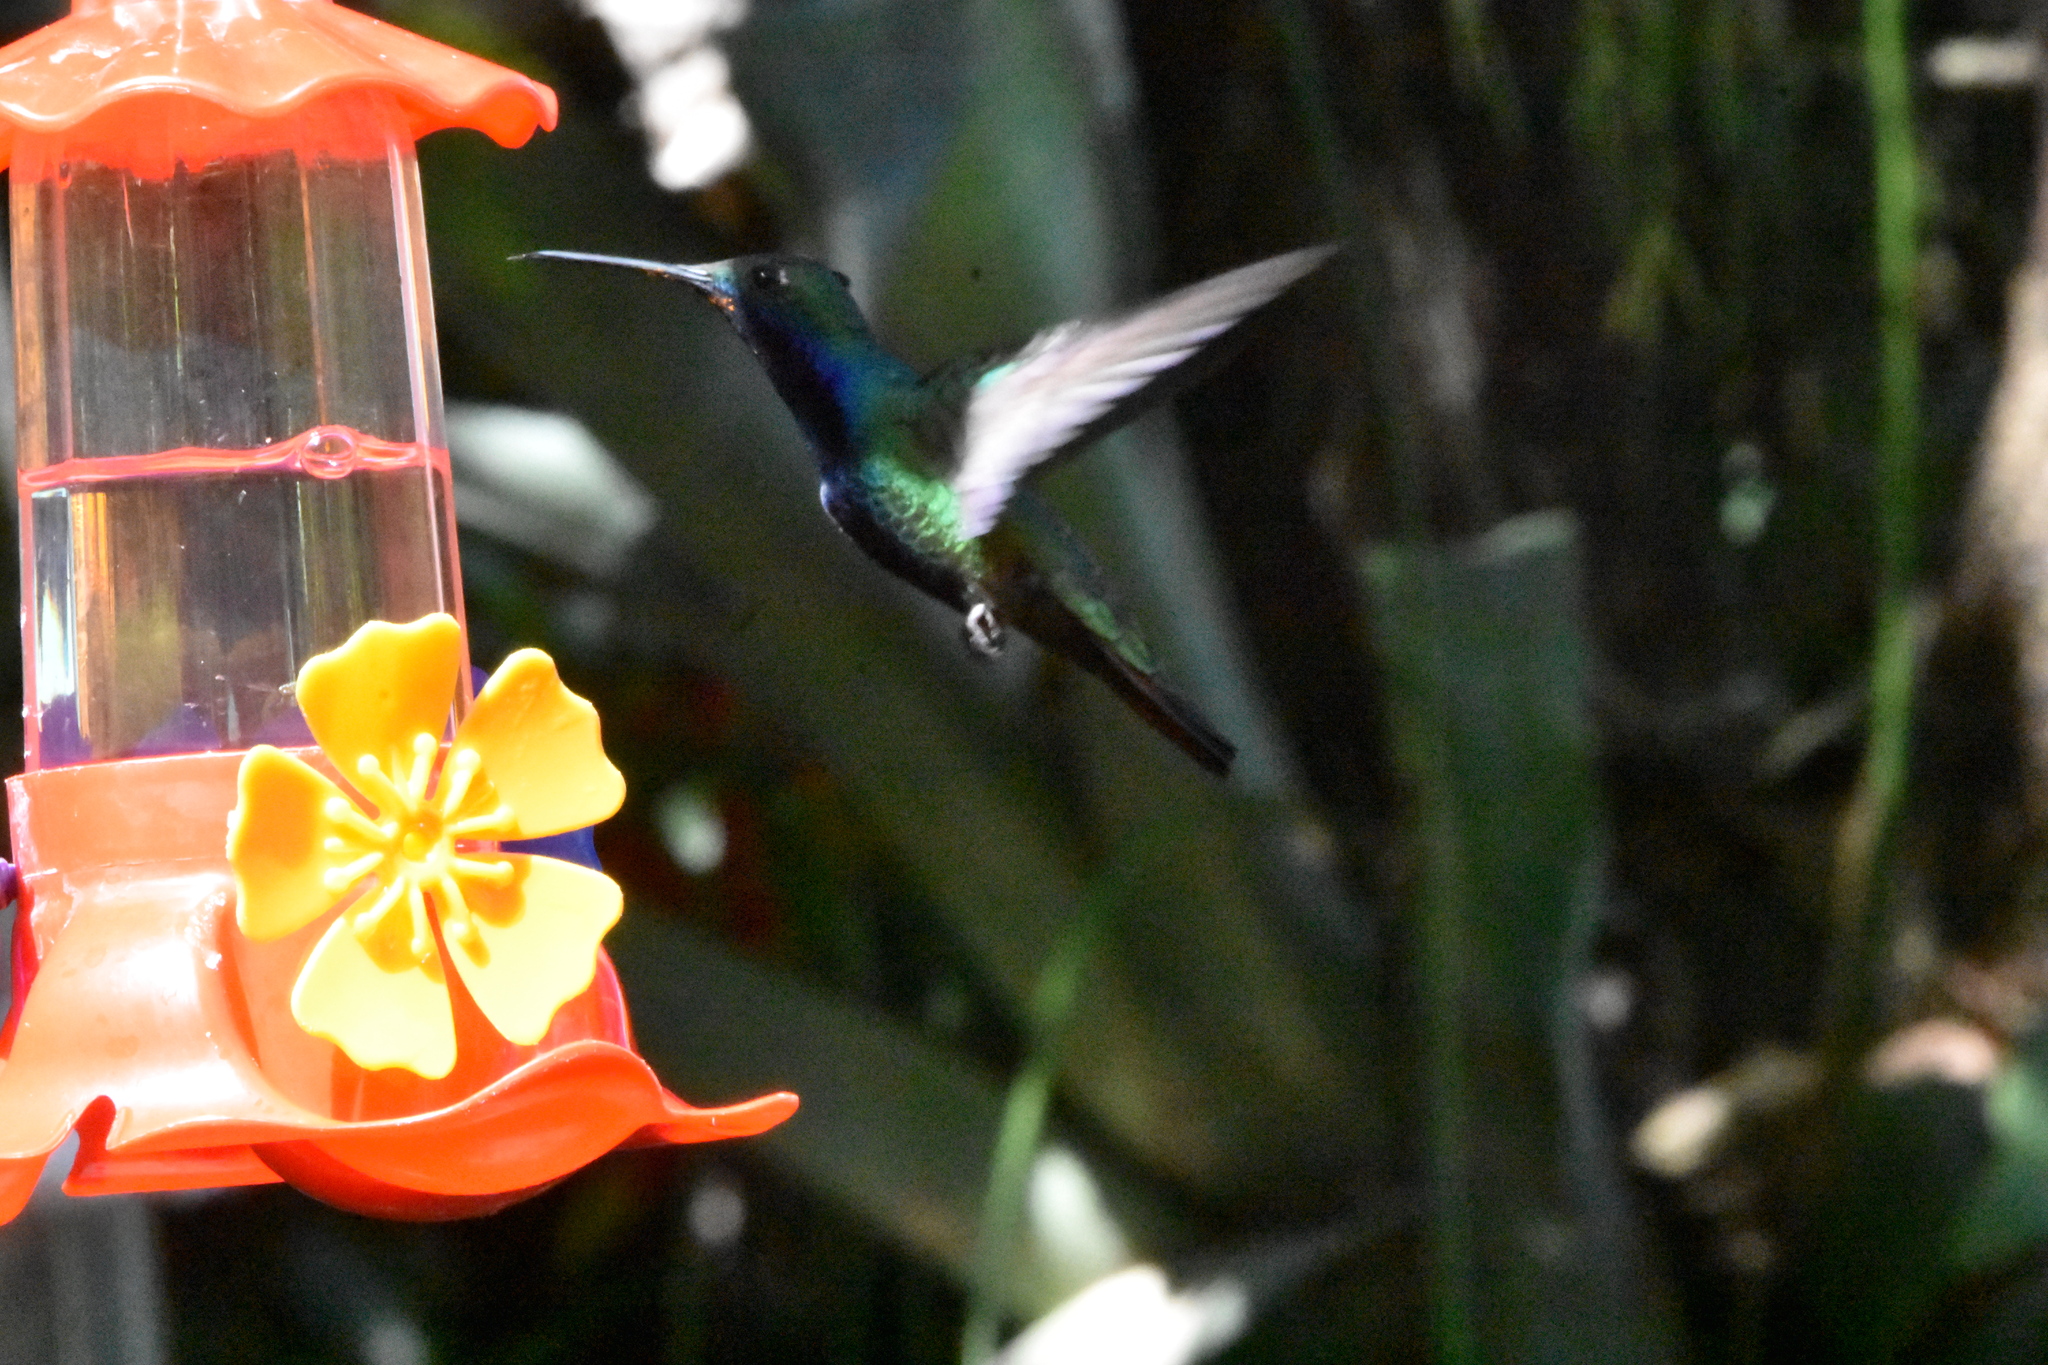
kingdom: Animalia
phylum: Chordata
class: Aves
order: Apodiformes
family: Trochilidae
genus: Heliomaster
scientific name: Heliomaster furcifer
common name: Blue-tufted starthroat
